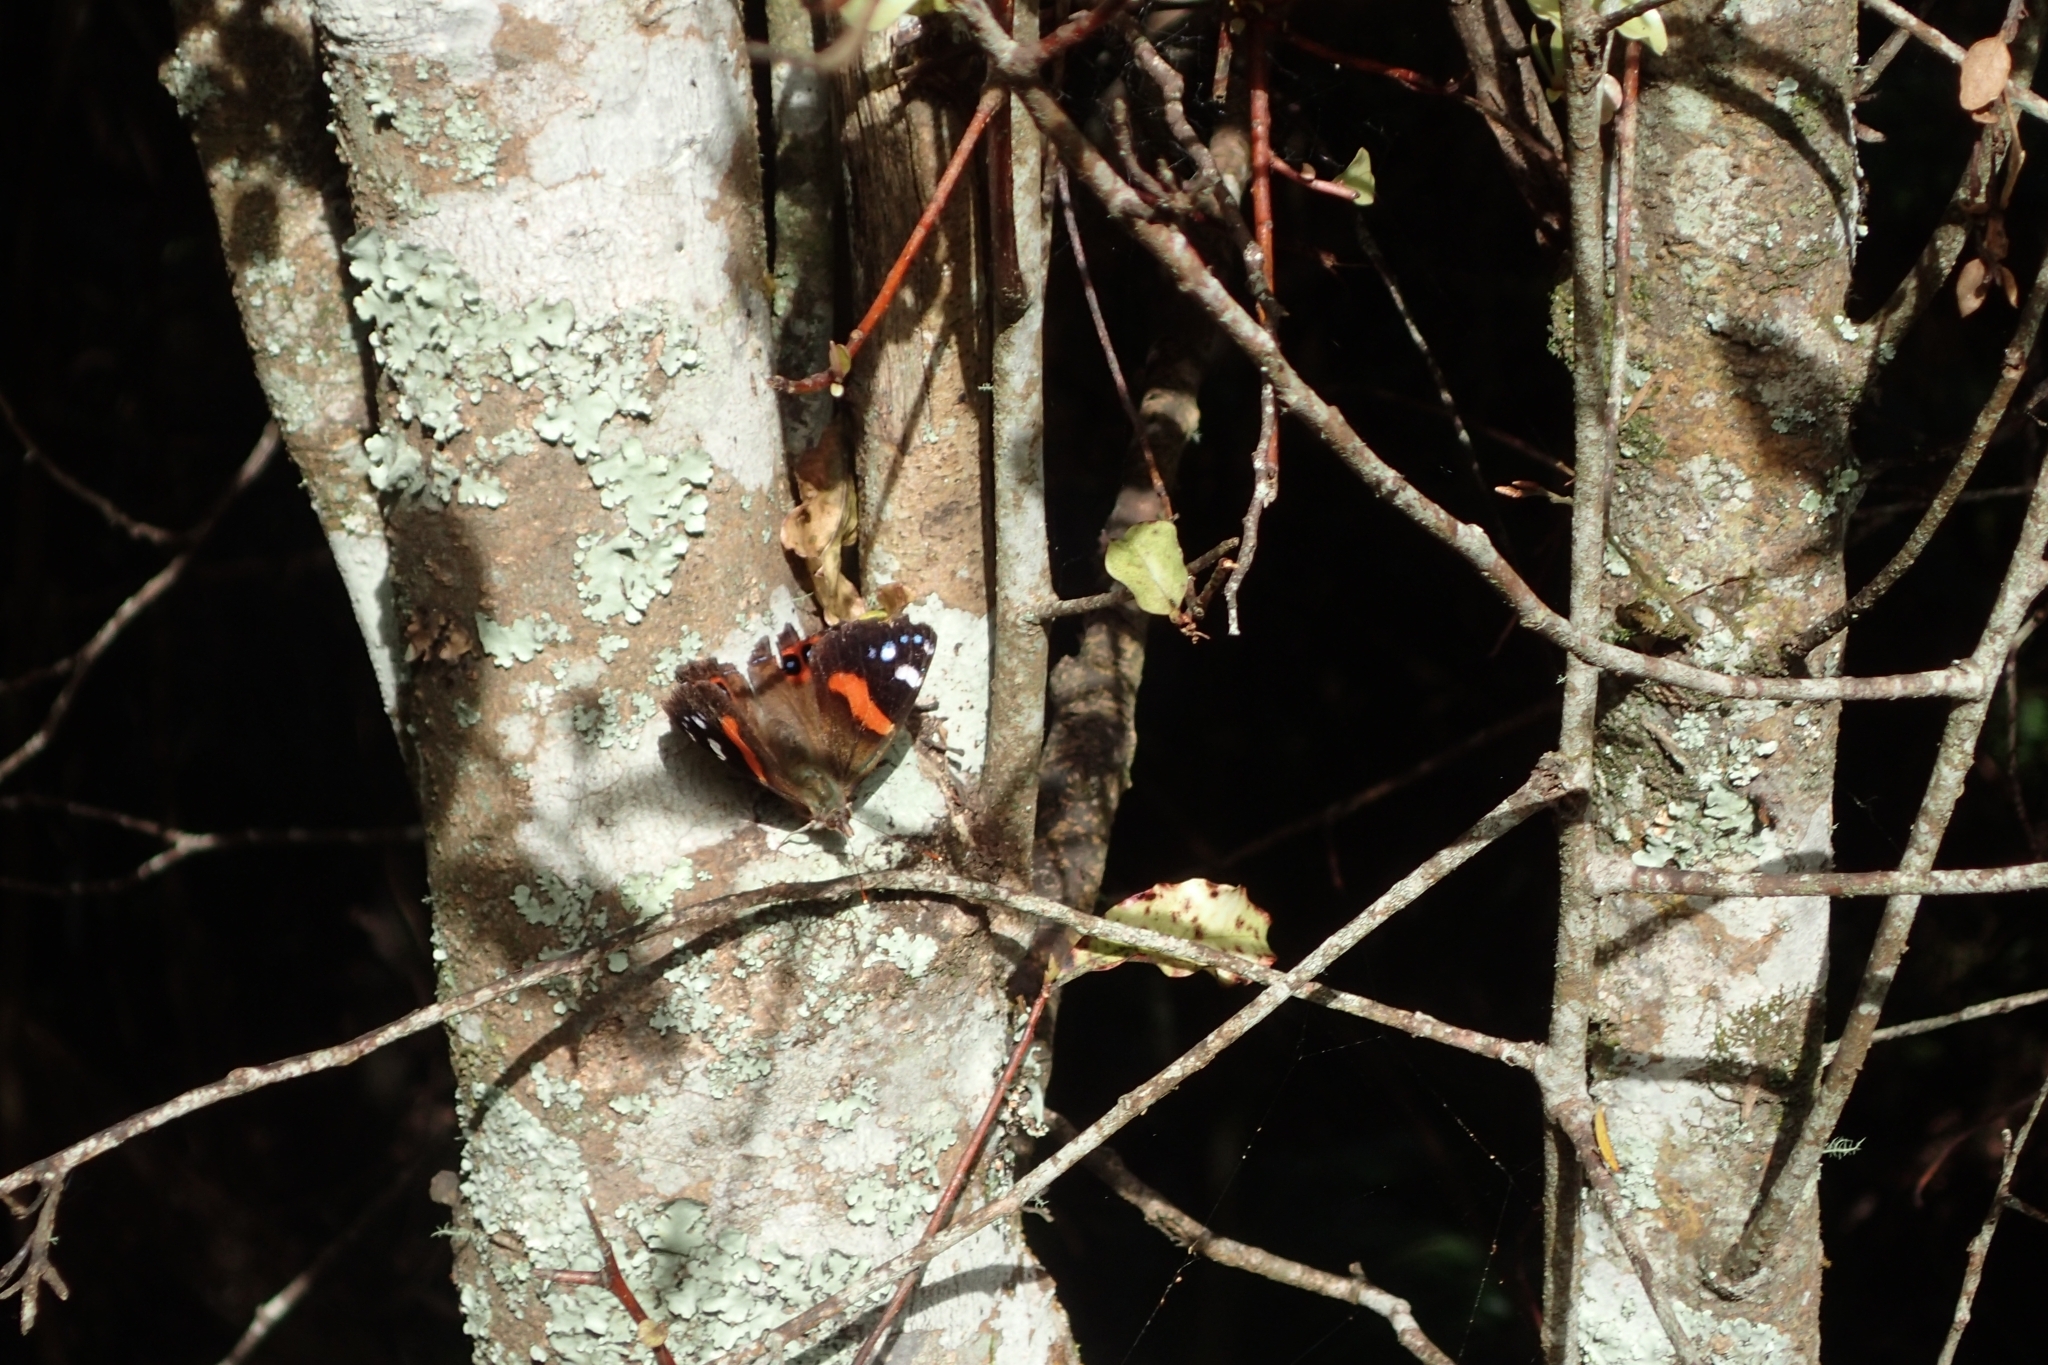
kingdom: Animalia
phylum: Arthropoda
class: Insecta
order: Lepidoptera
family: Nymphalidae
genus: Vanessa
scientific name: Vanessa gonerilla
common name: New zealand red admiral
